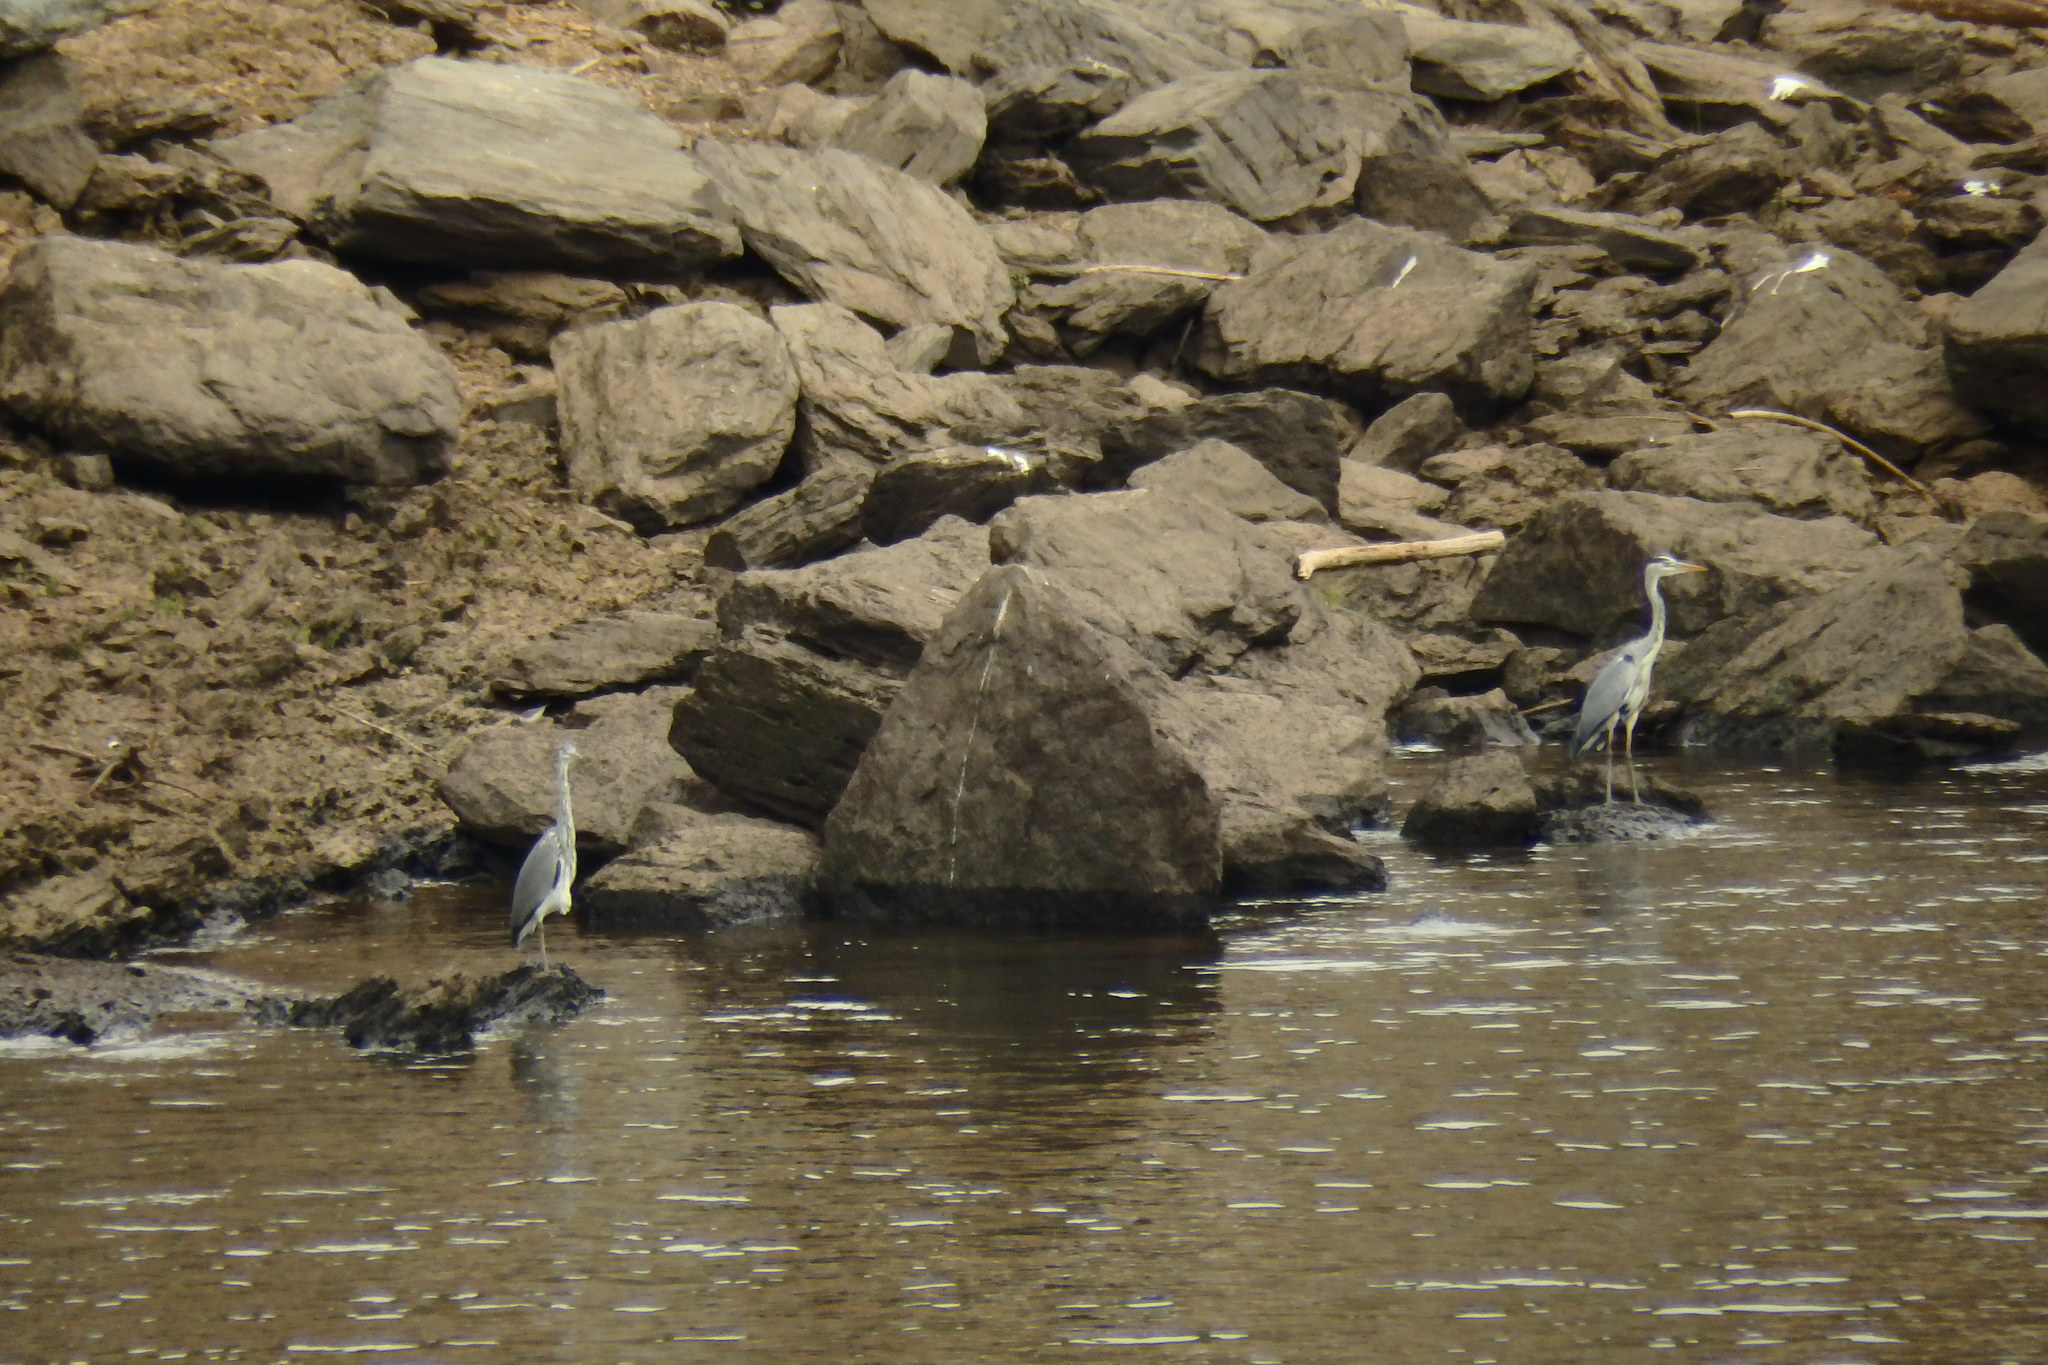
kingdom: Animalia
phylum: Chordata
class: Aves
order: Pelecaniformes
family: Ardeidae
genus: Ardea
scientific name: Ardea cinerea
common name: Grey heron
